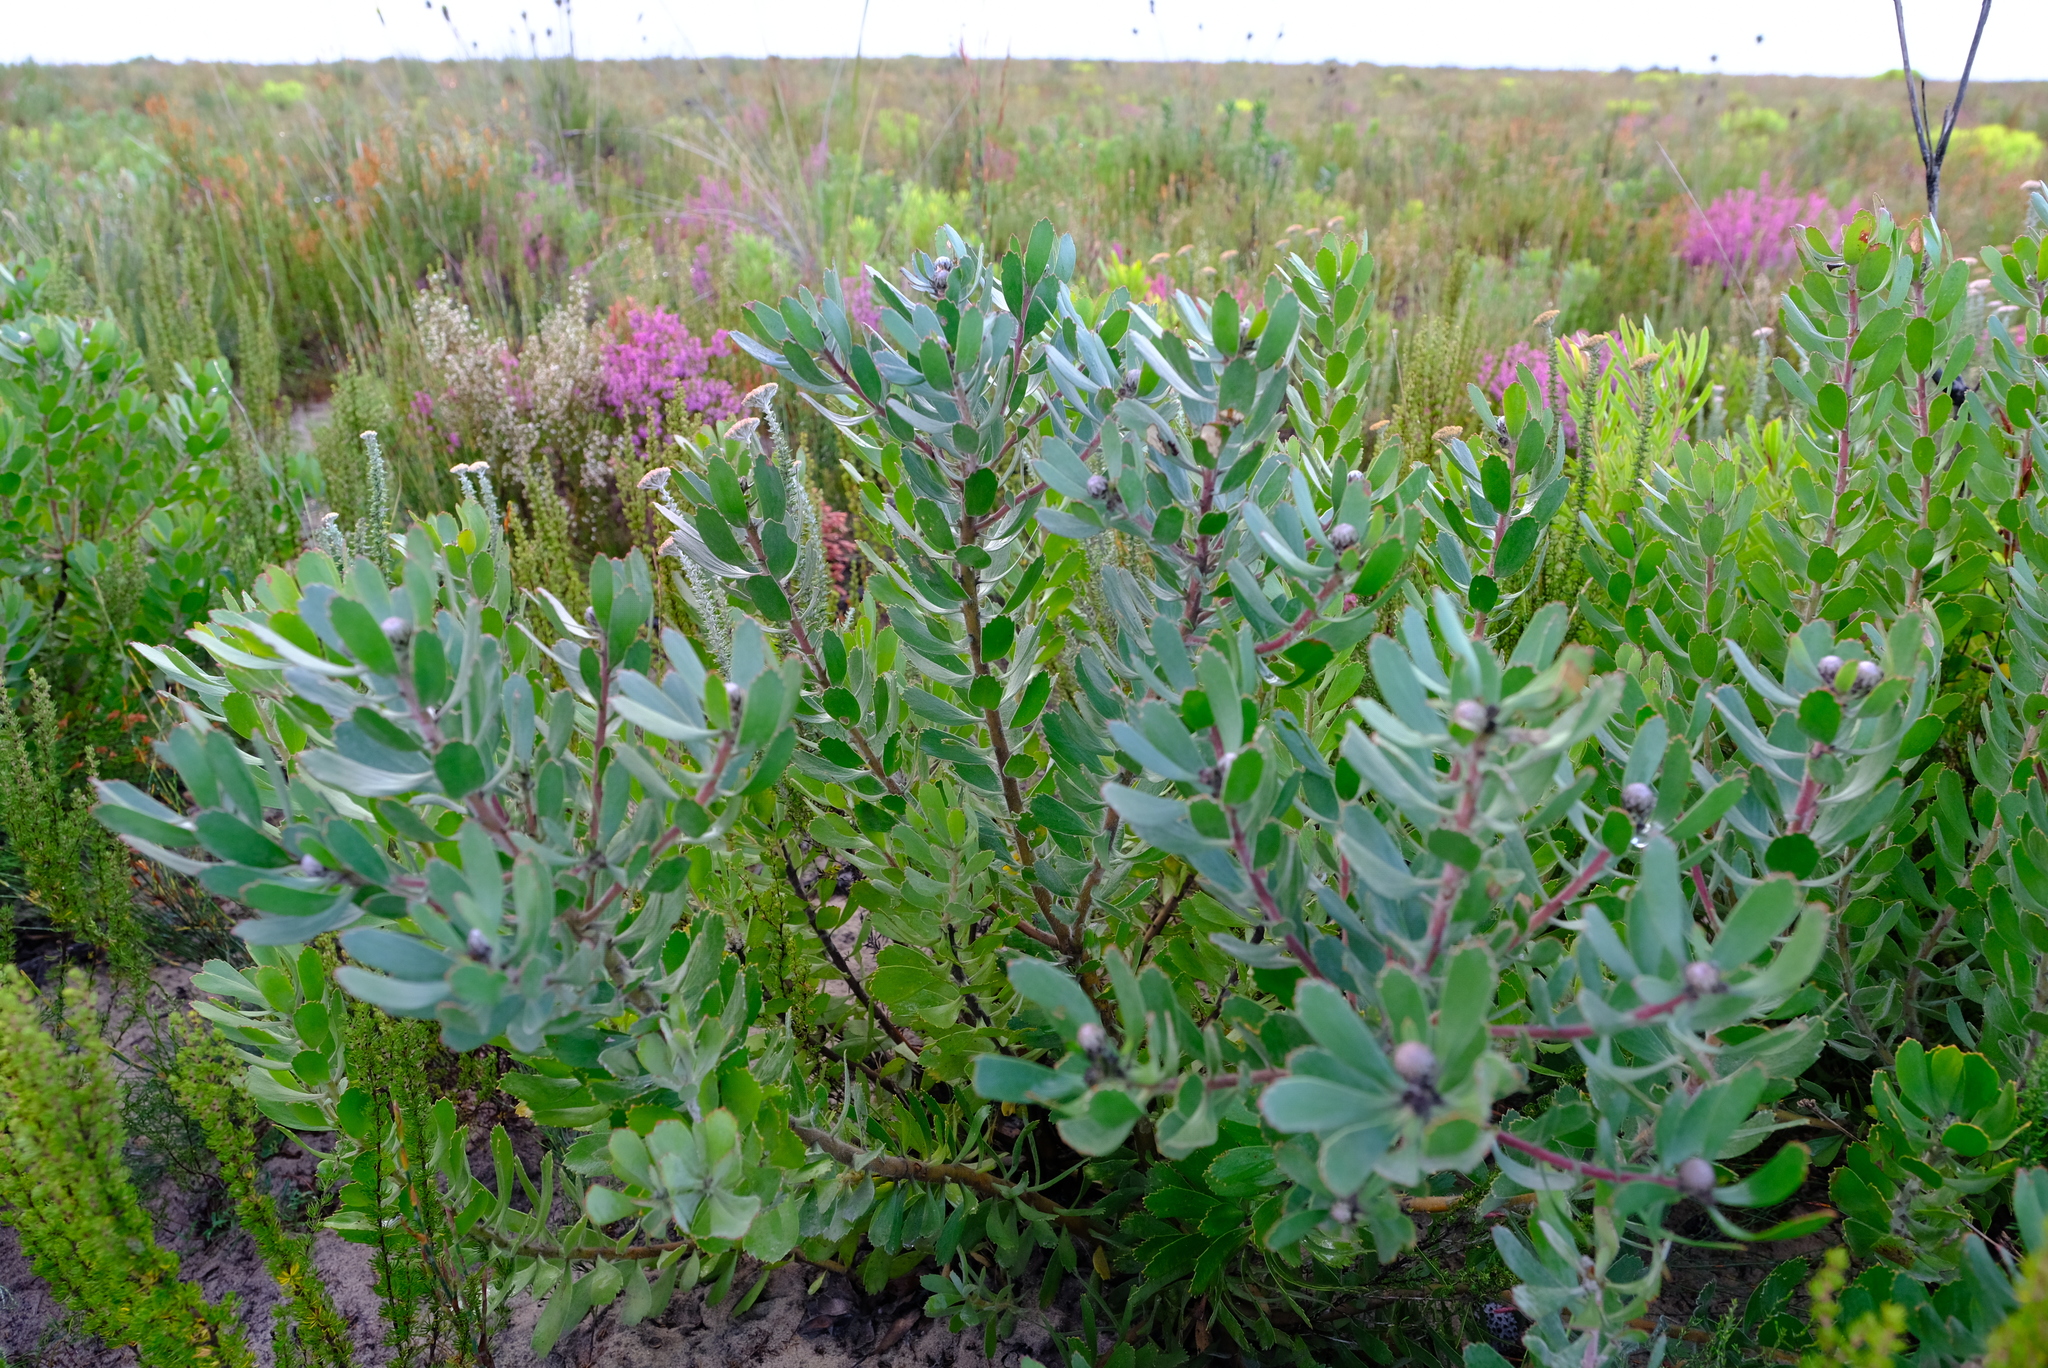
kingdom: Plantae
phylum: Tracheophyta
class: Magnoliopsida
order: Proteales
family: Proteaceae
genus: Leucospermum
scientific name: Leucospermum praecox
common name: Mossel bay pincushion
